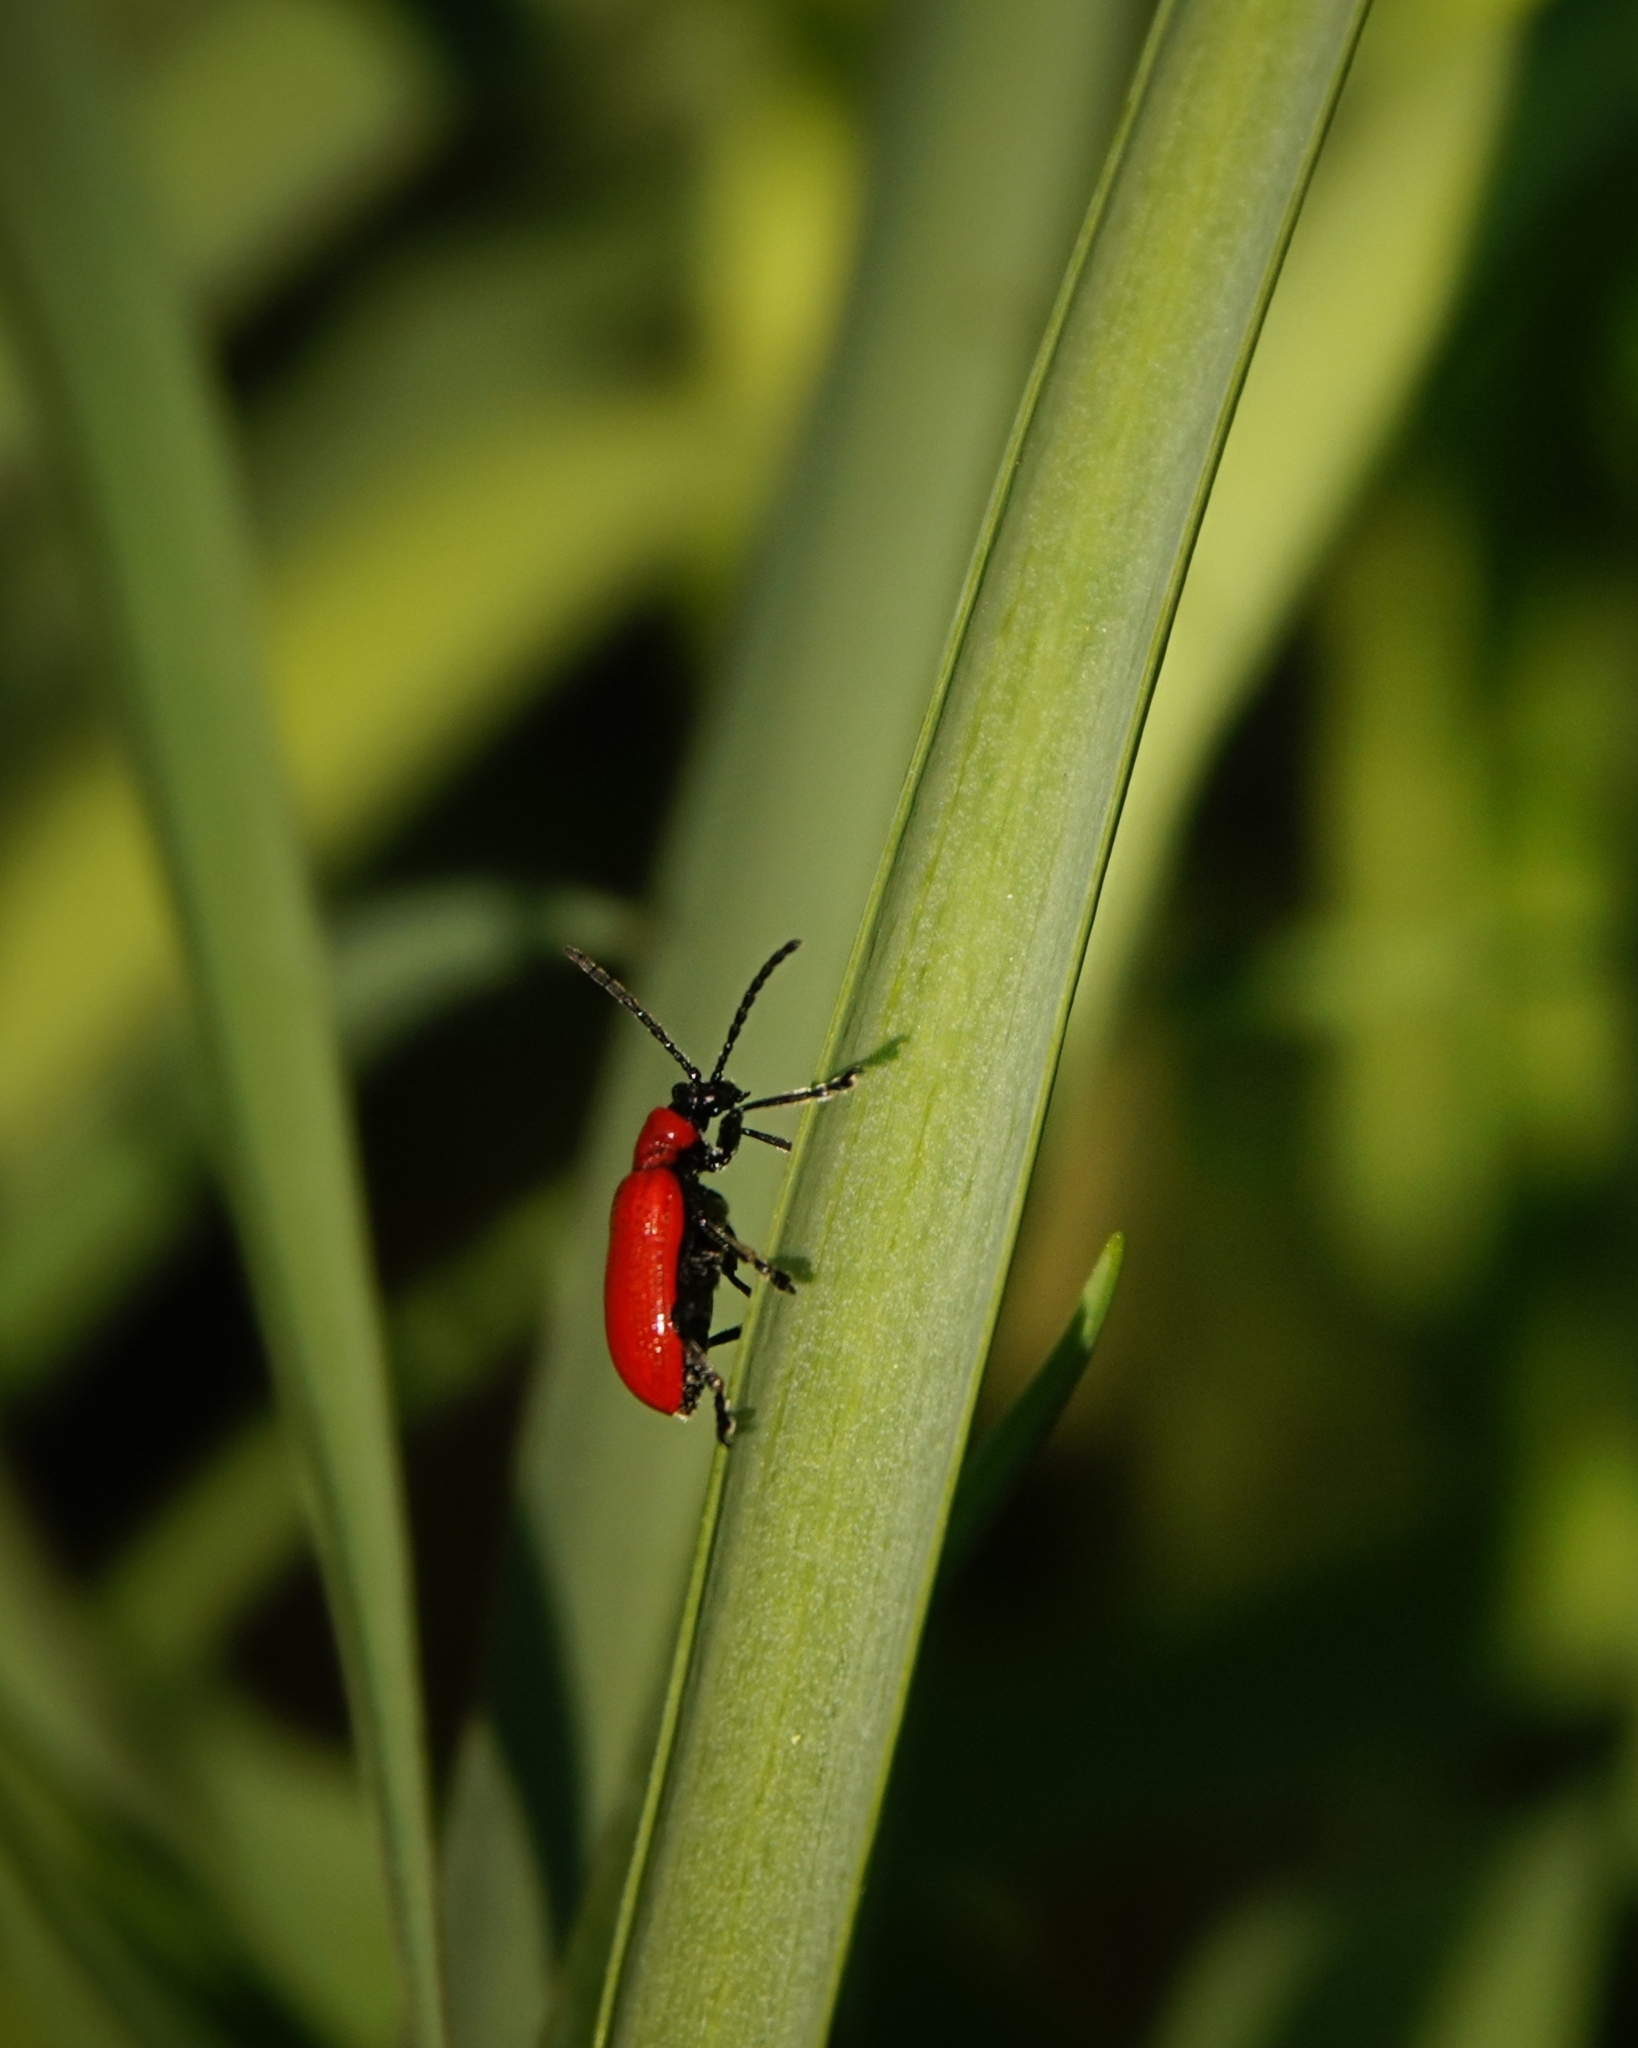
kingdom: Animalia
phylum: Arthropoda
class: Insecta
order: Coleoptera
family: Chrysomelidae
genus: Lilioceris
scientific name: Lilioceris lilii
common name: Lily beetle
